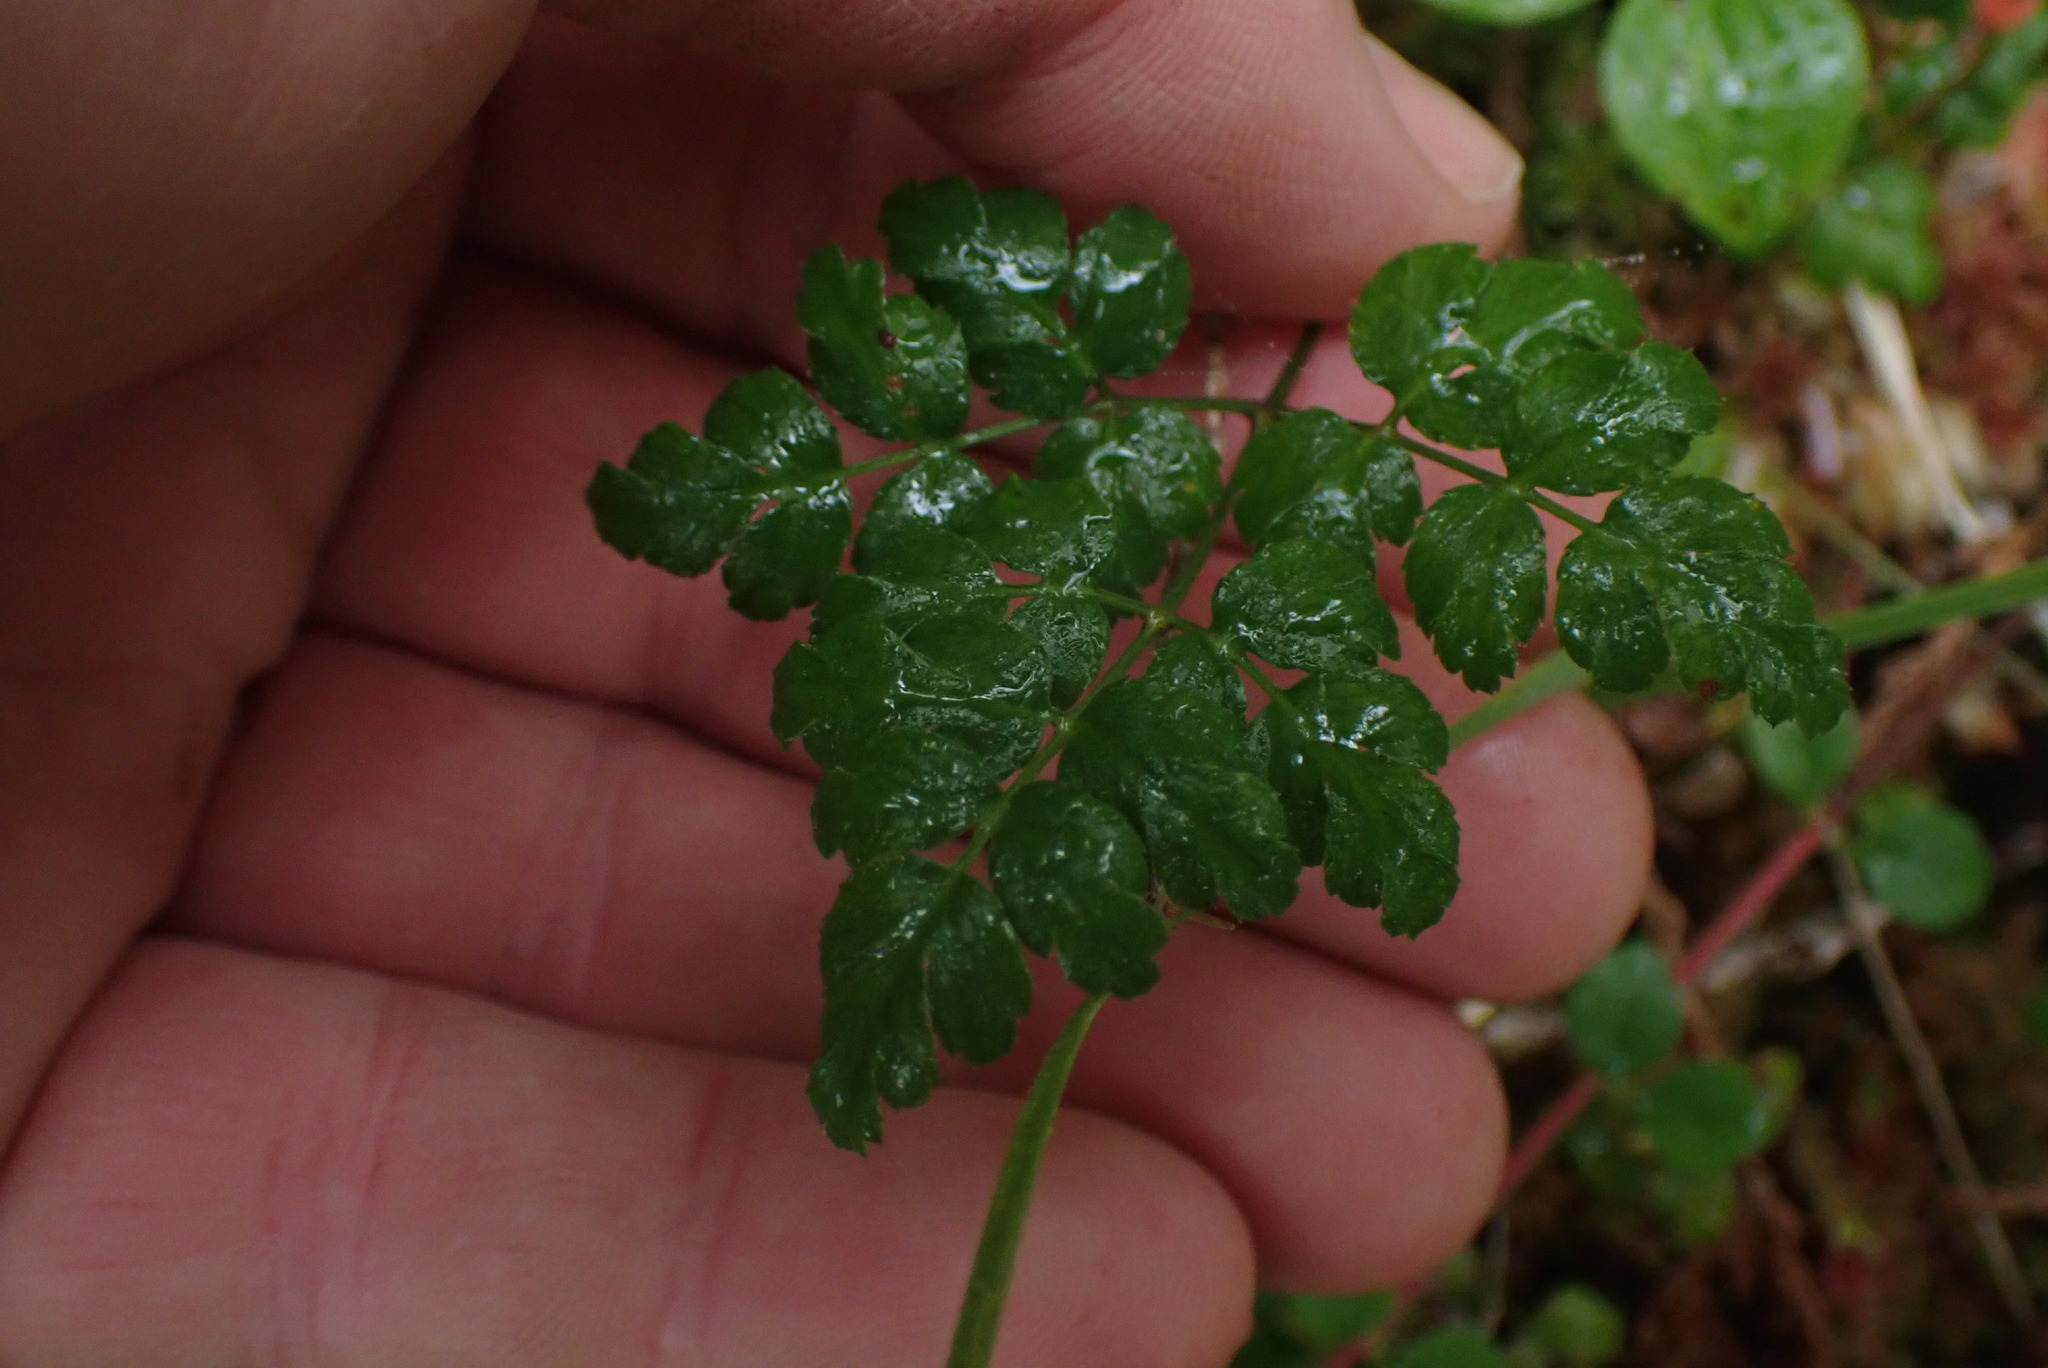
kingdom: Plantae
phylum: Tracheophyta
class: Magnoliopsida
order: Ranunculales
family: Ranunculaceae
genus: Coptis
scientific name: Coptis aspleniifolia
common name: Fern-leaved goldthread
